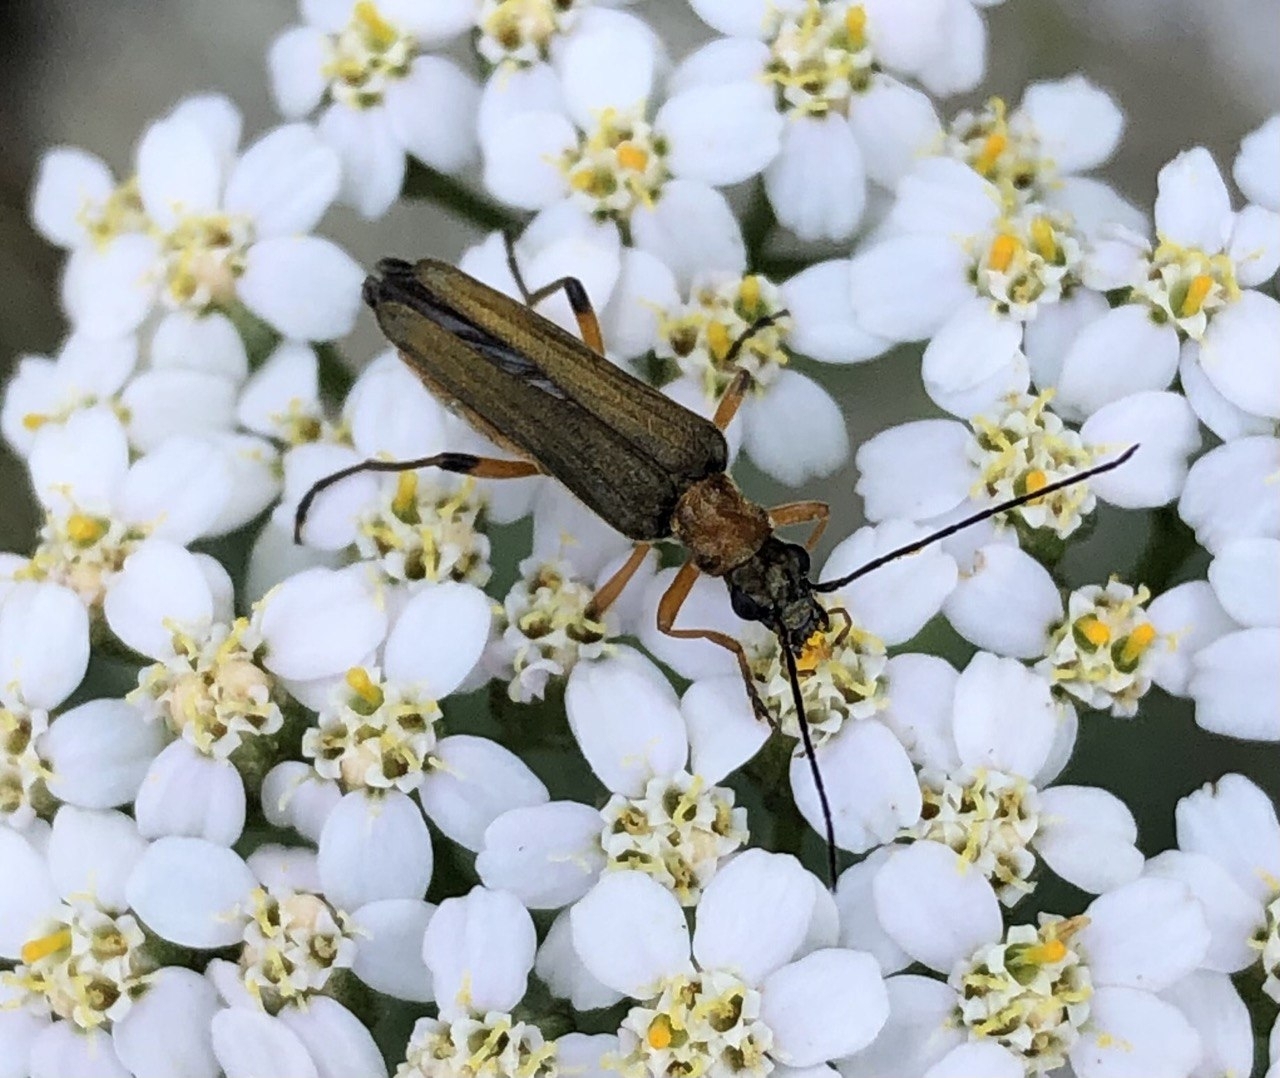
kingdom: Animalia
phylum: Arthropoda
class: Insecta
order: Coleoptera
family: Oedemeridae
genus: Oedemera
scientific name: Oedemera podagrariae
